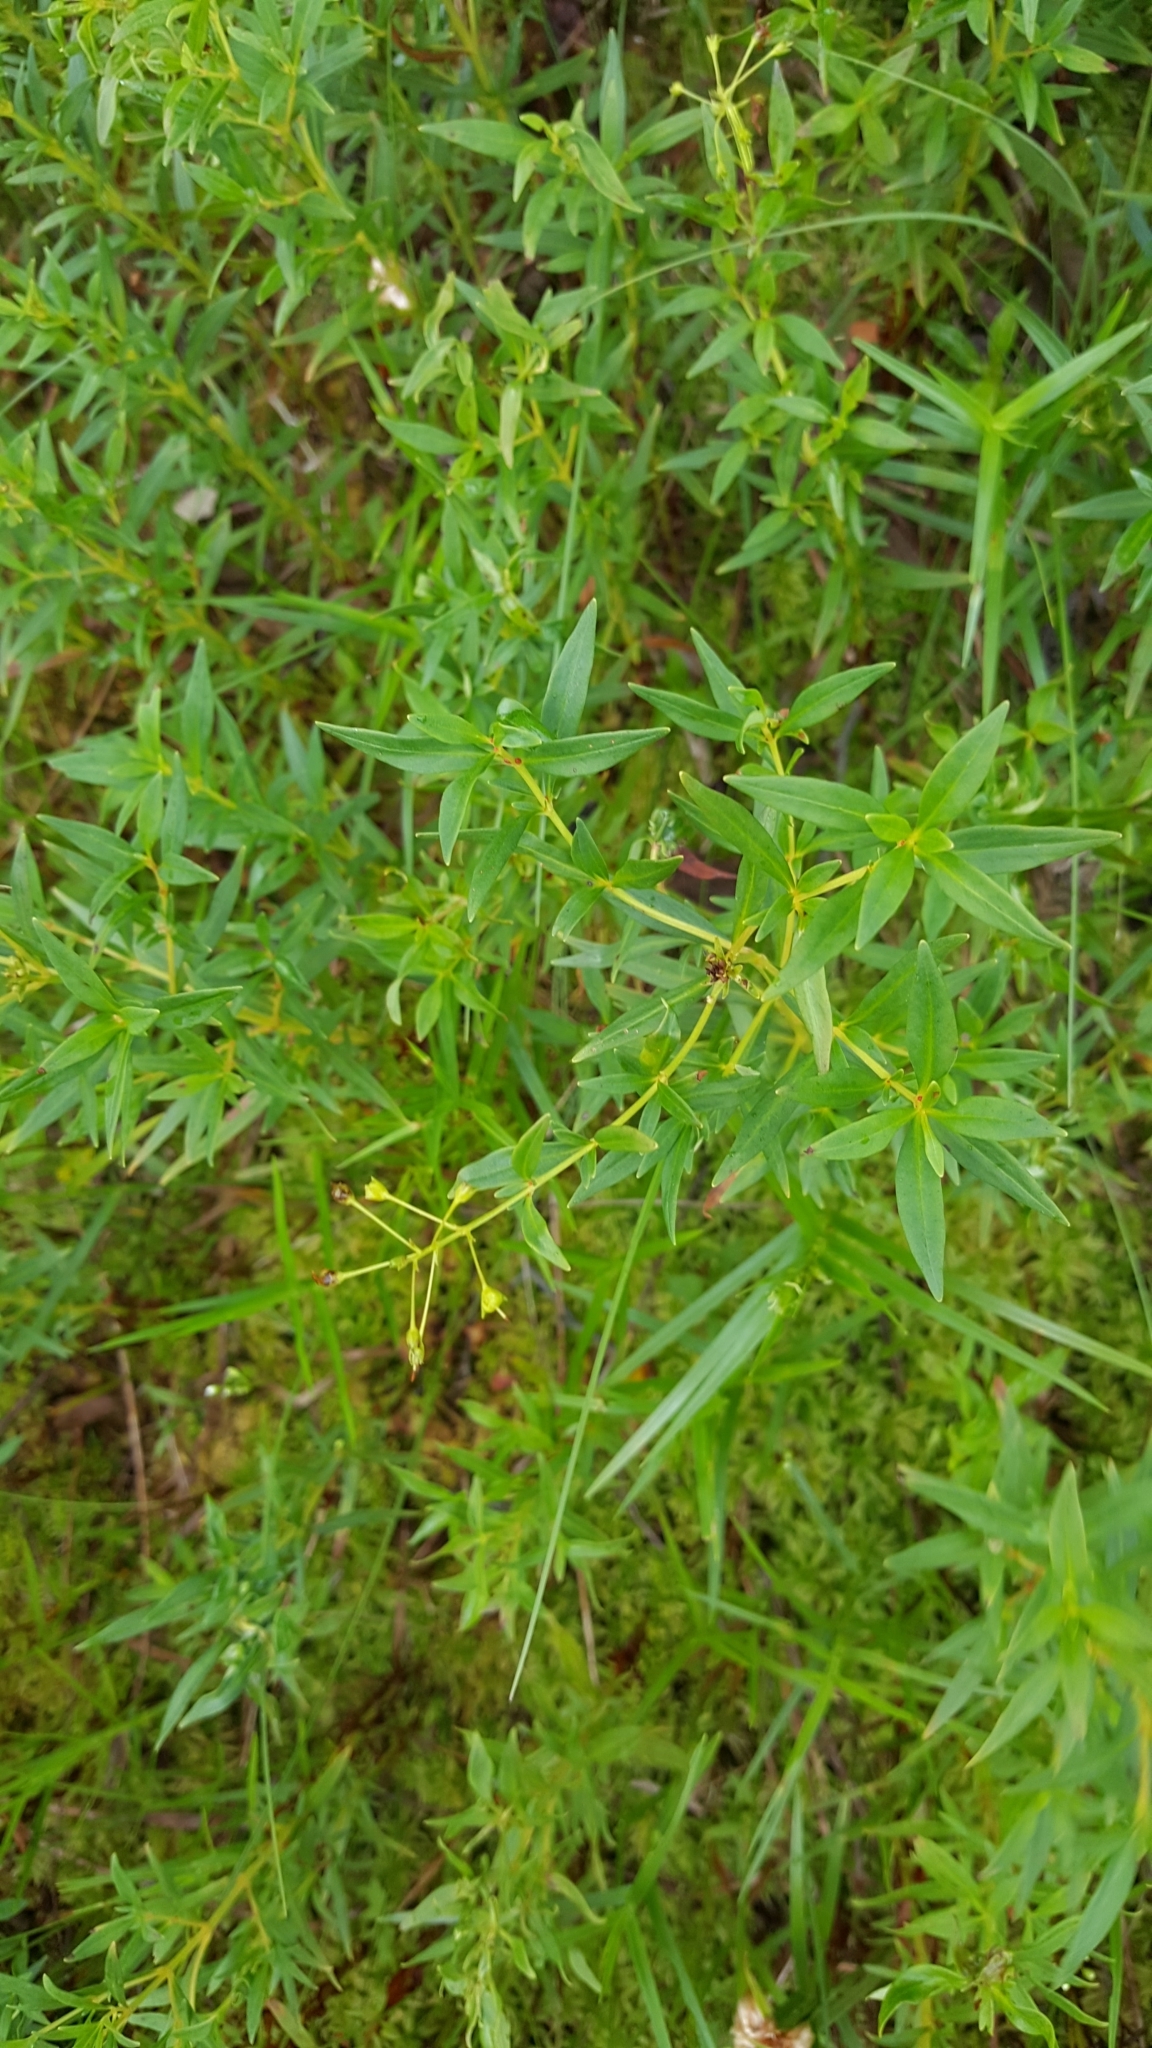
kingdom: Plantae
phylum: Tracheophyta
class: Magnoliopsida
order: Ericales
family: Primulaceae
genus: Lysimachia
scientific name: Lysimachia terrestris
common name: Lake loosestrife
